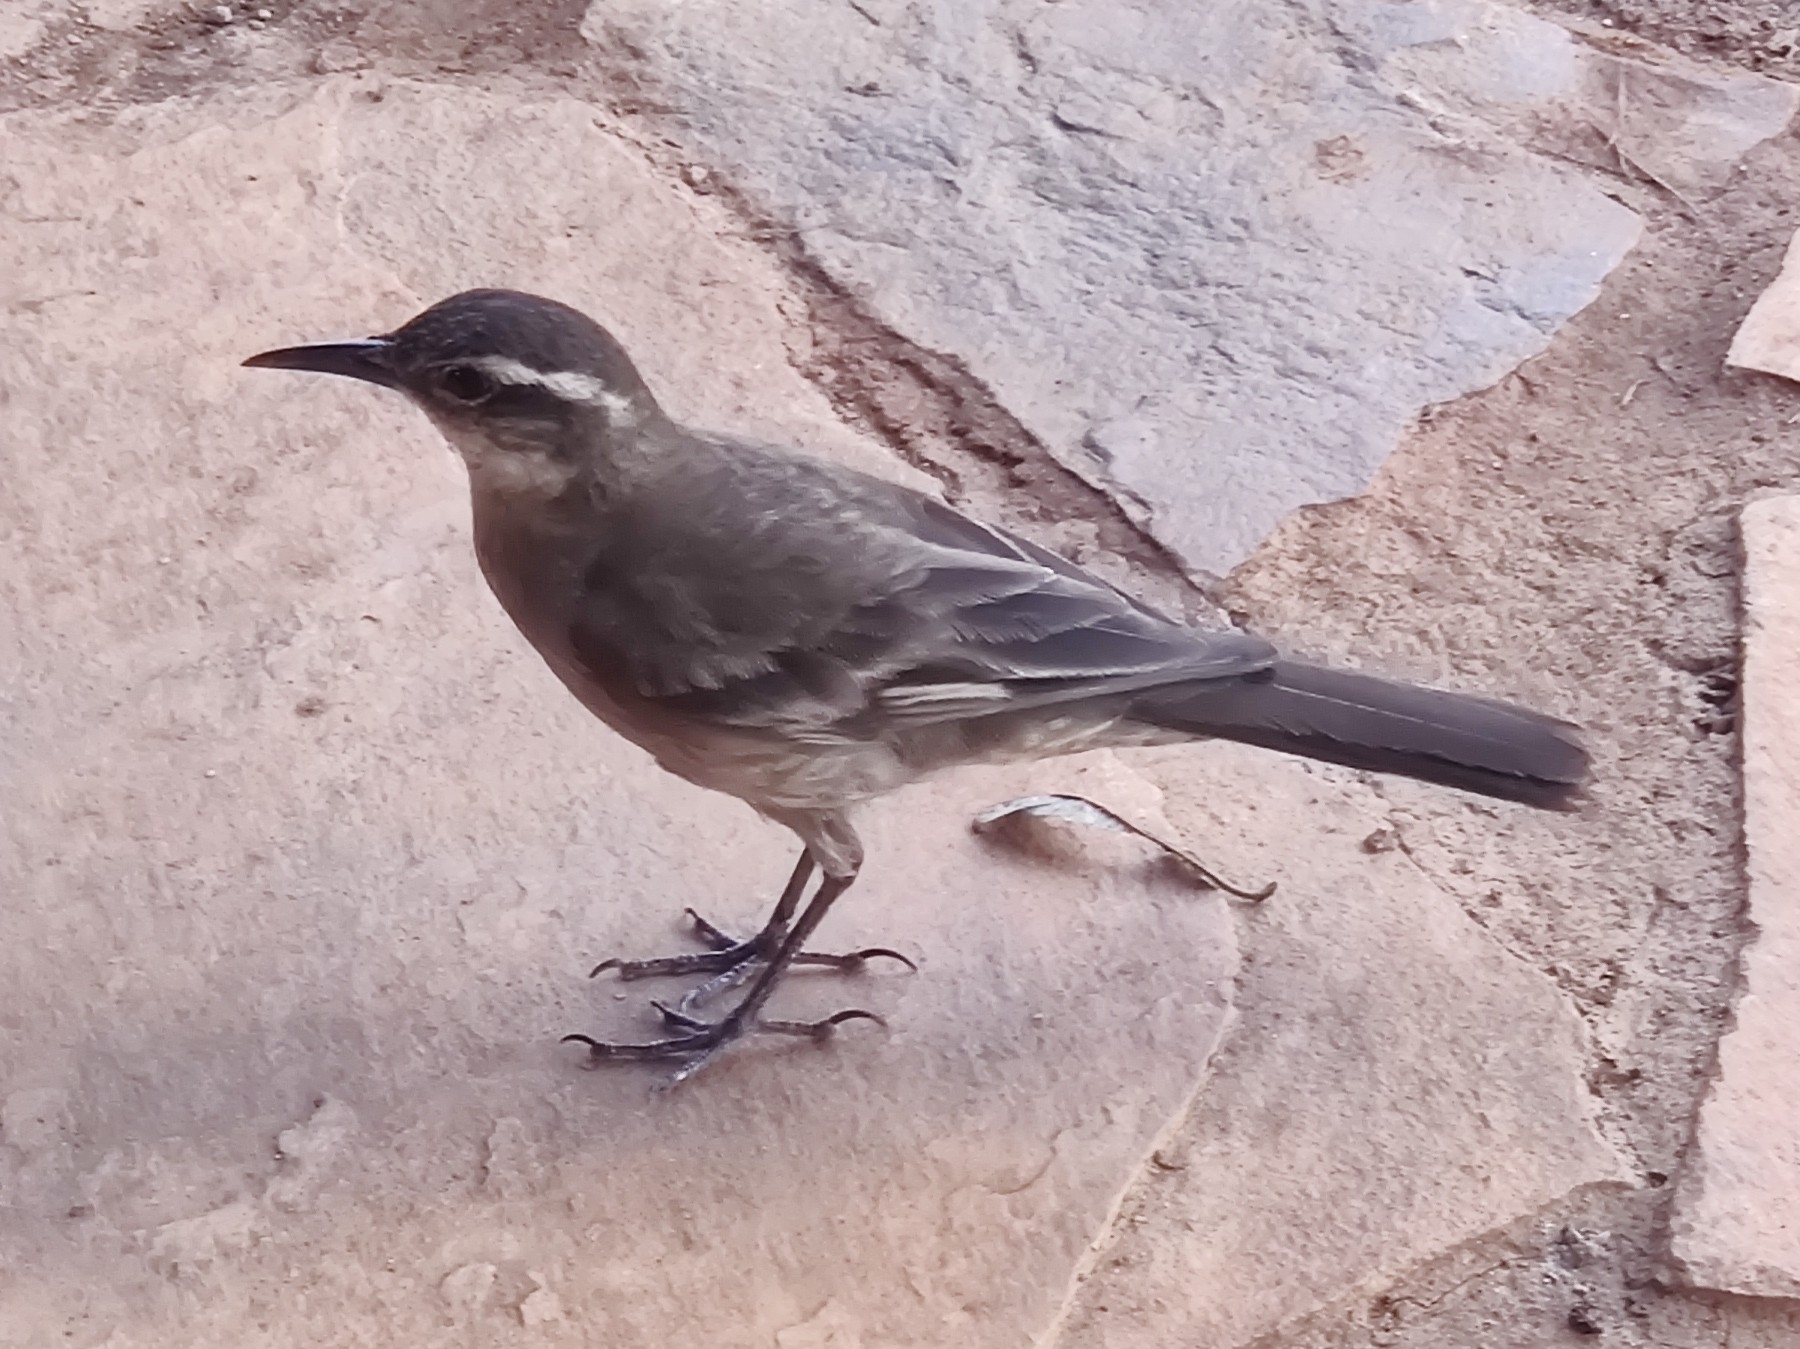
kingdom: Animalia
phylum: Chordata
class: Aves
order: Passeriformes
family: Furnariidae
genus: Cinclodes
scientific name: Cinclodes pabsti
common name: Long-tailed cinclodes
